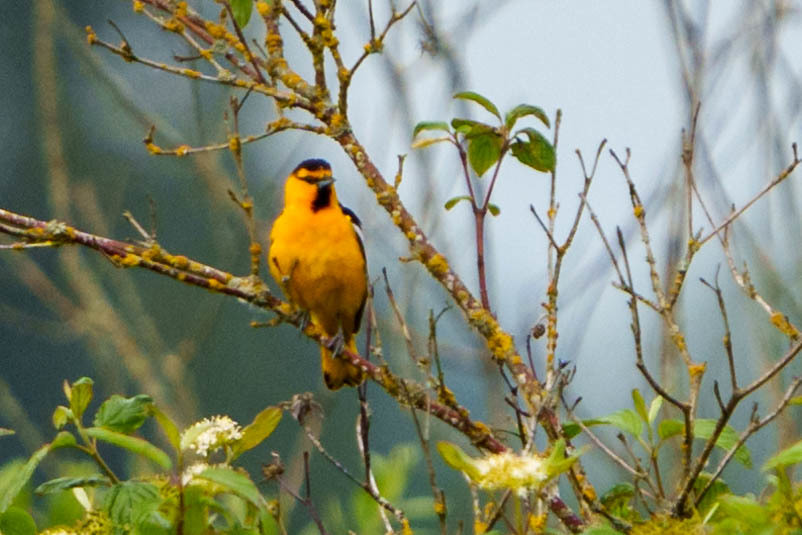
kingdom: Animalia
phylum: Chordata
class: Aves
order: Passeriformes
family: Icteridae
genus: Icterus
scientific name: Icterus bullockii
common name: Bullock's oriole
